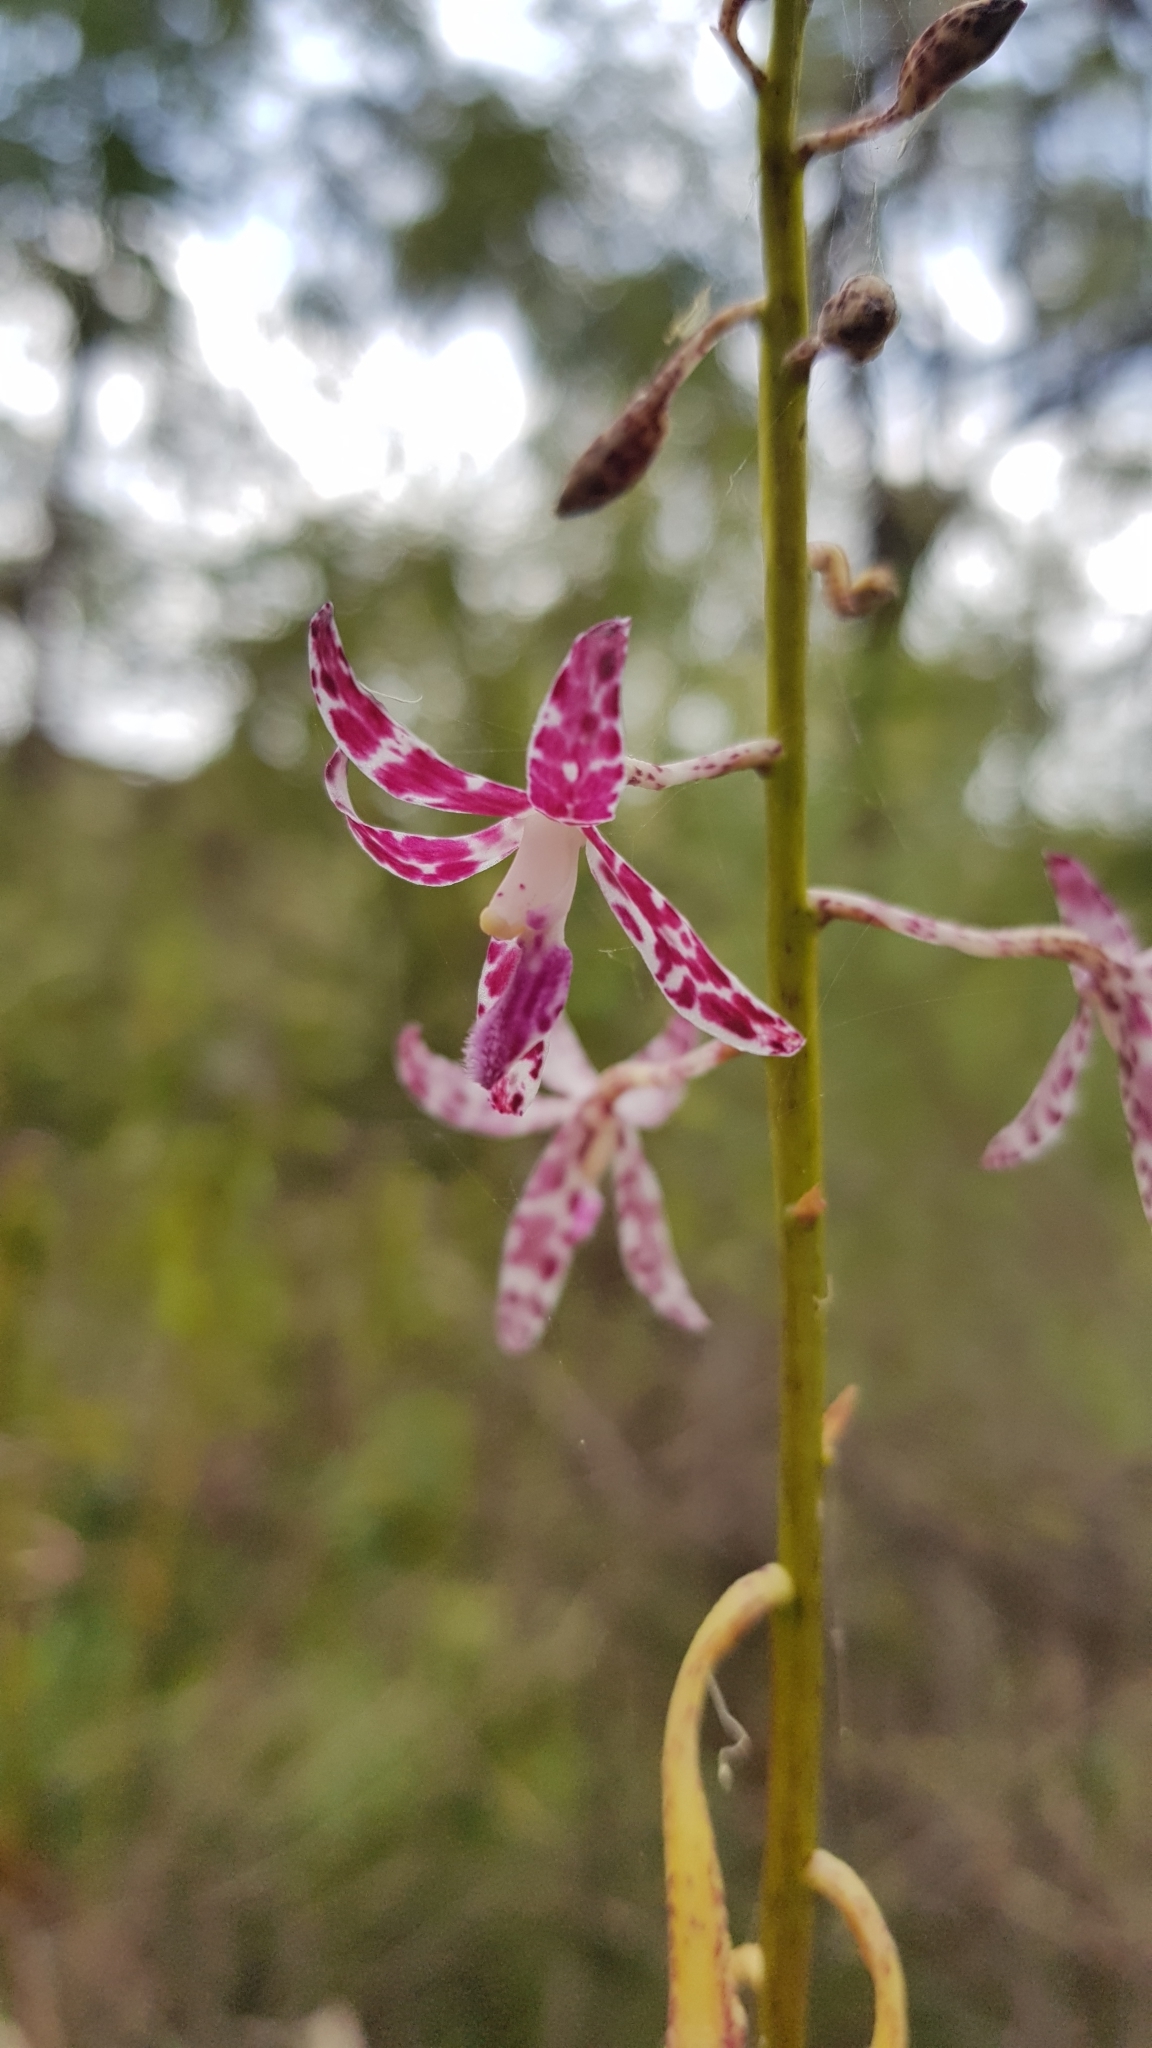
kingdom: Plantae
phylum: Tracheophyta
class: Liliopsida
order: Asparagales
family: Orchidaceae
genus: Dipodium
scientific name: Dipodium variegatum
